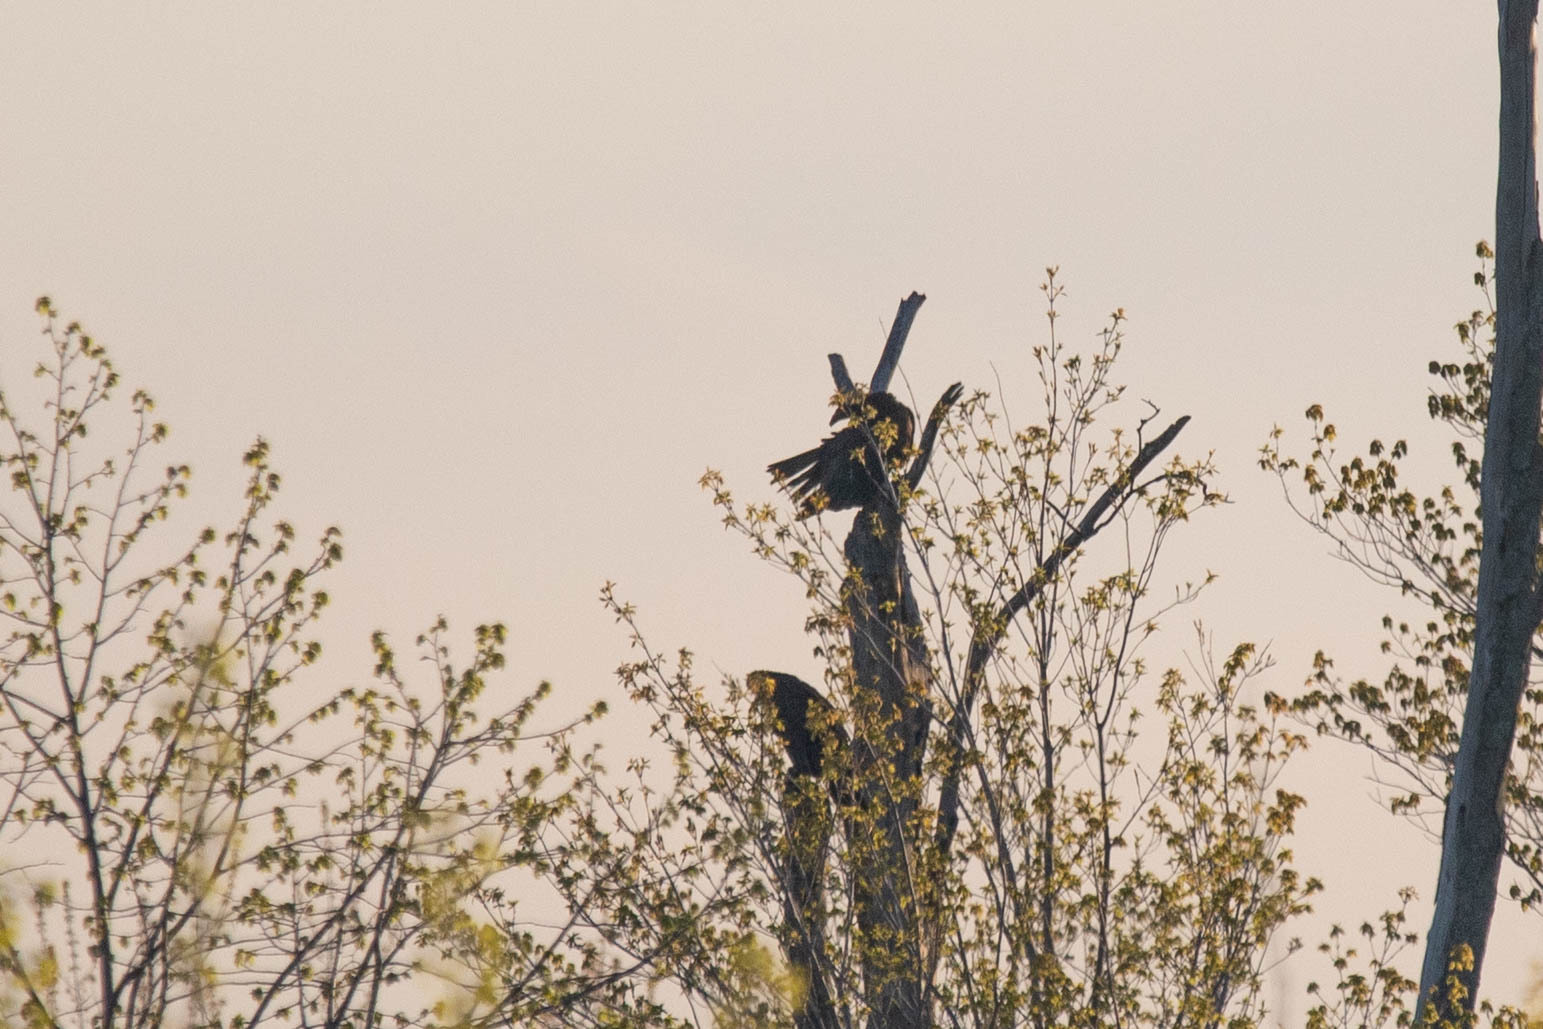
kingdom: Animalia
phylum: Chordata
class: Aves
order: Accipitriformes
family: Cathartidae
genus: Cathartes
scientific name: Cathartes aura
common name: Turkey vulture
